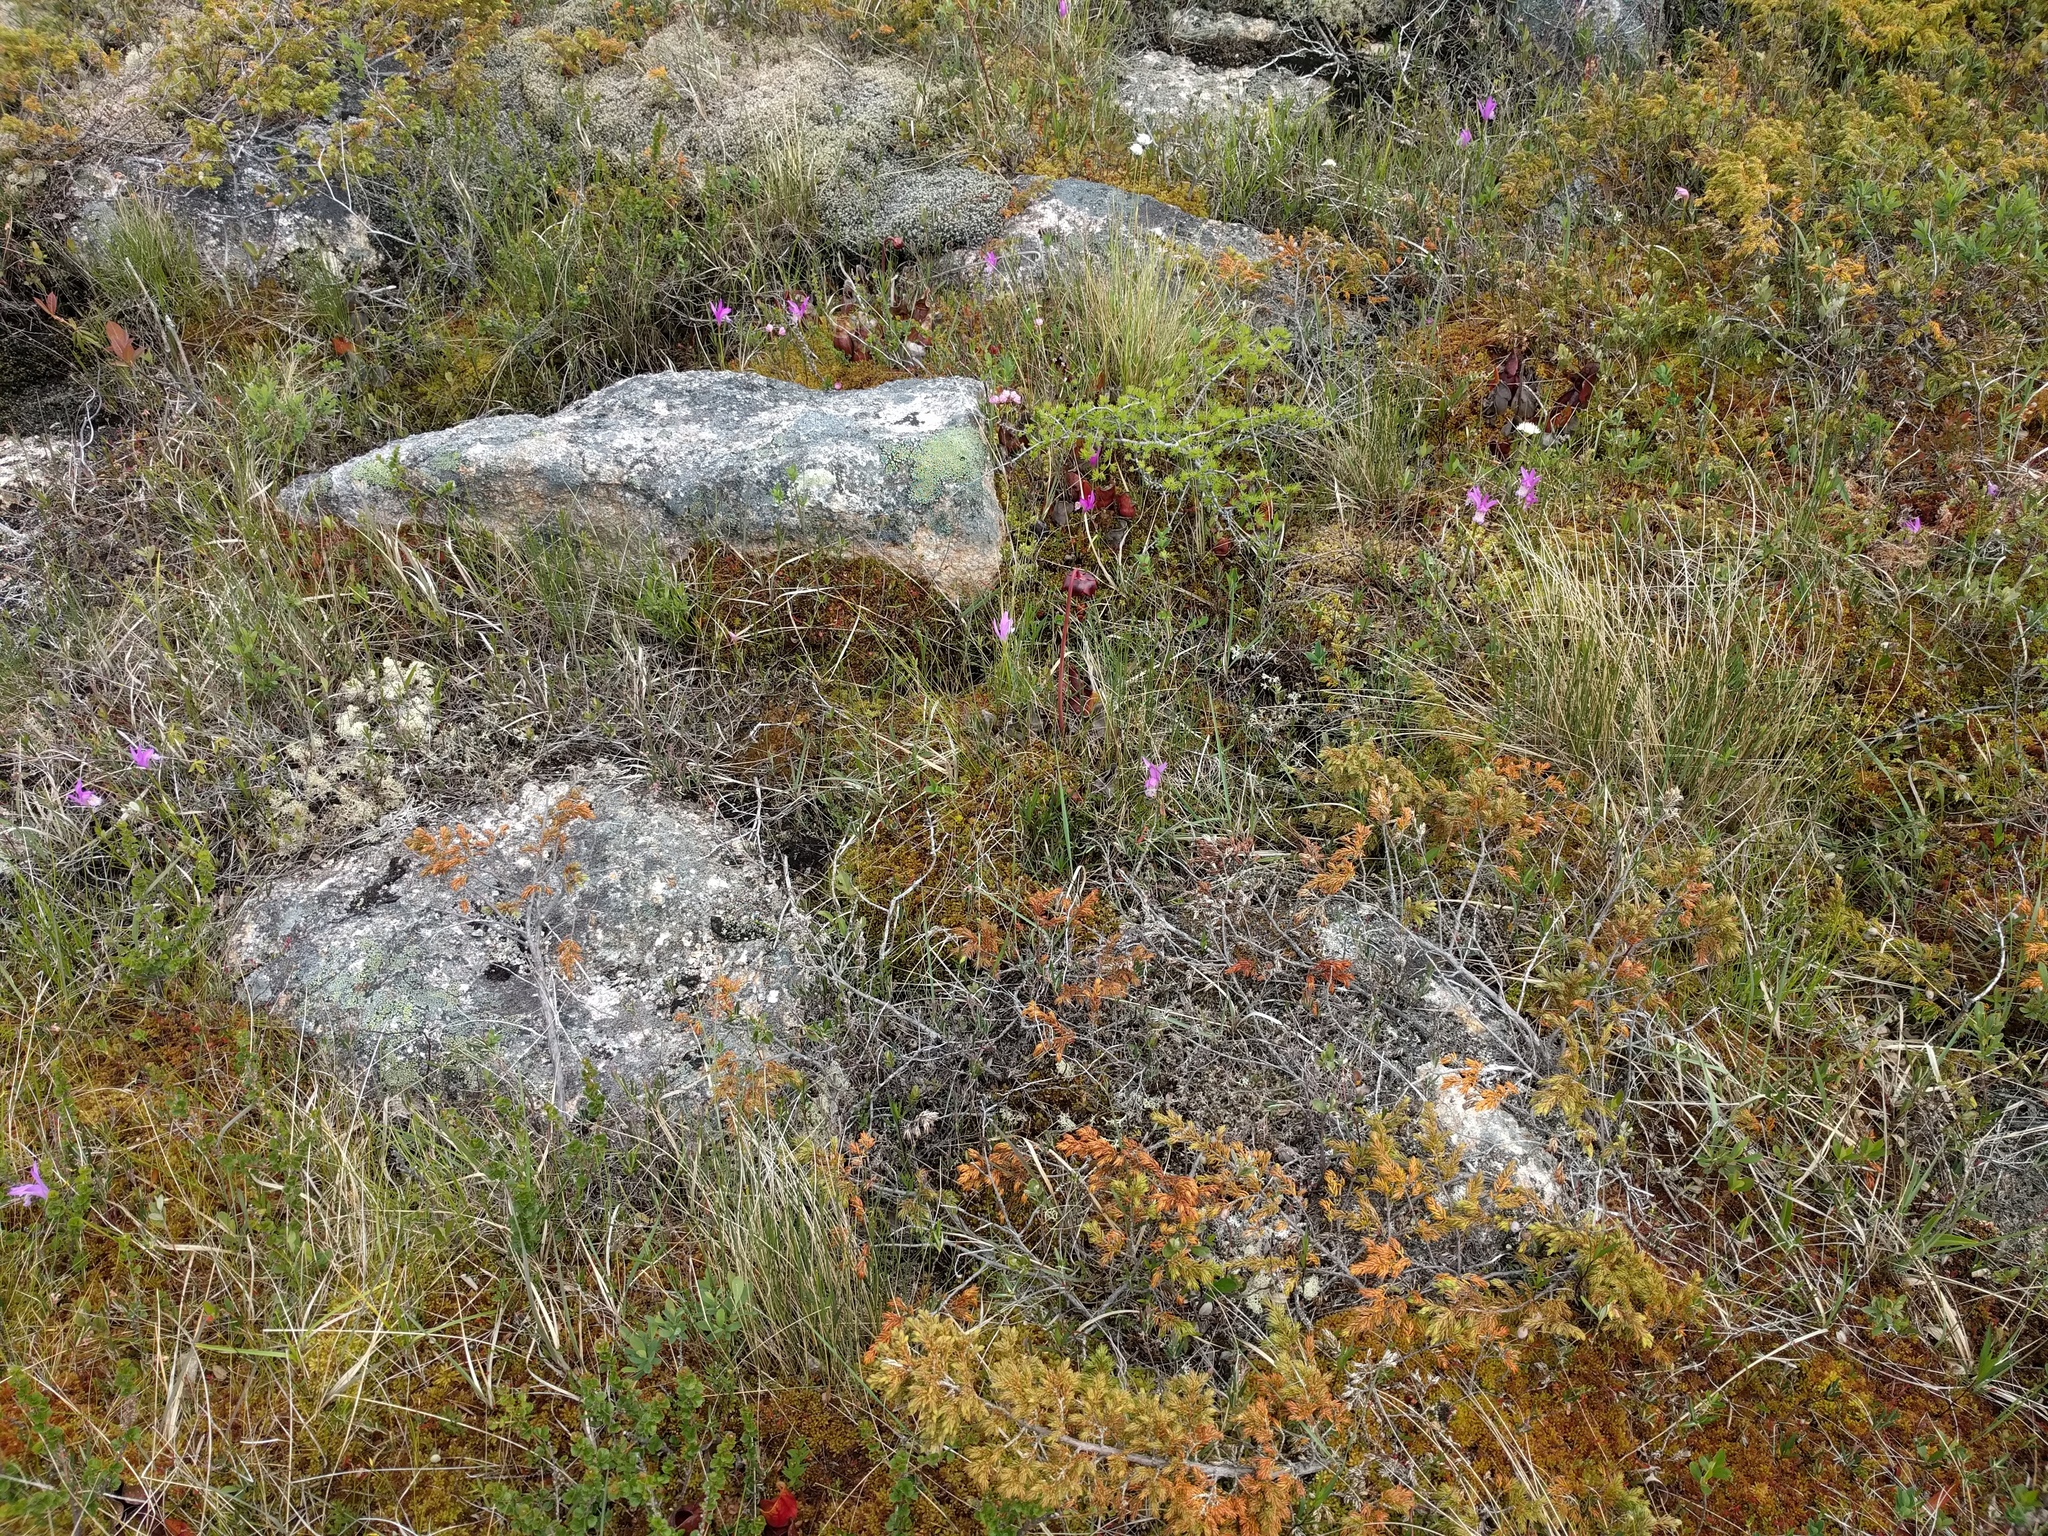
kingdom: Plantae
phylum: Tracheophyta
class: Liliopsida
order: Asparagales
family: Orchidaceae
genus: Arethusa
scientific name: Arethusa bulbosa
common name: Arethusa
